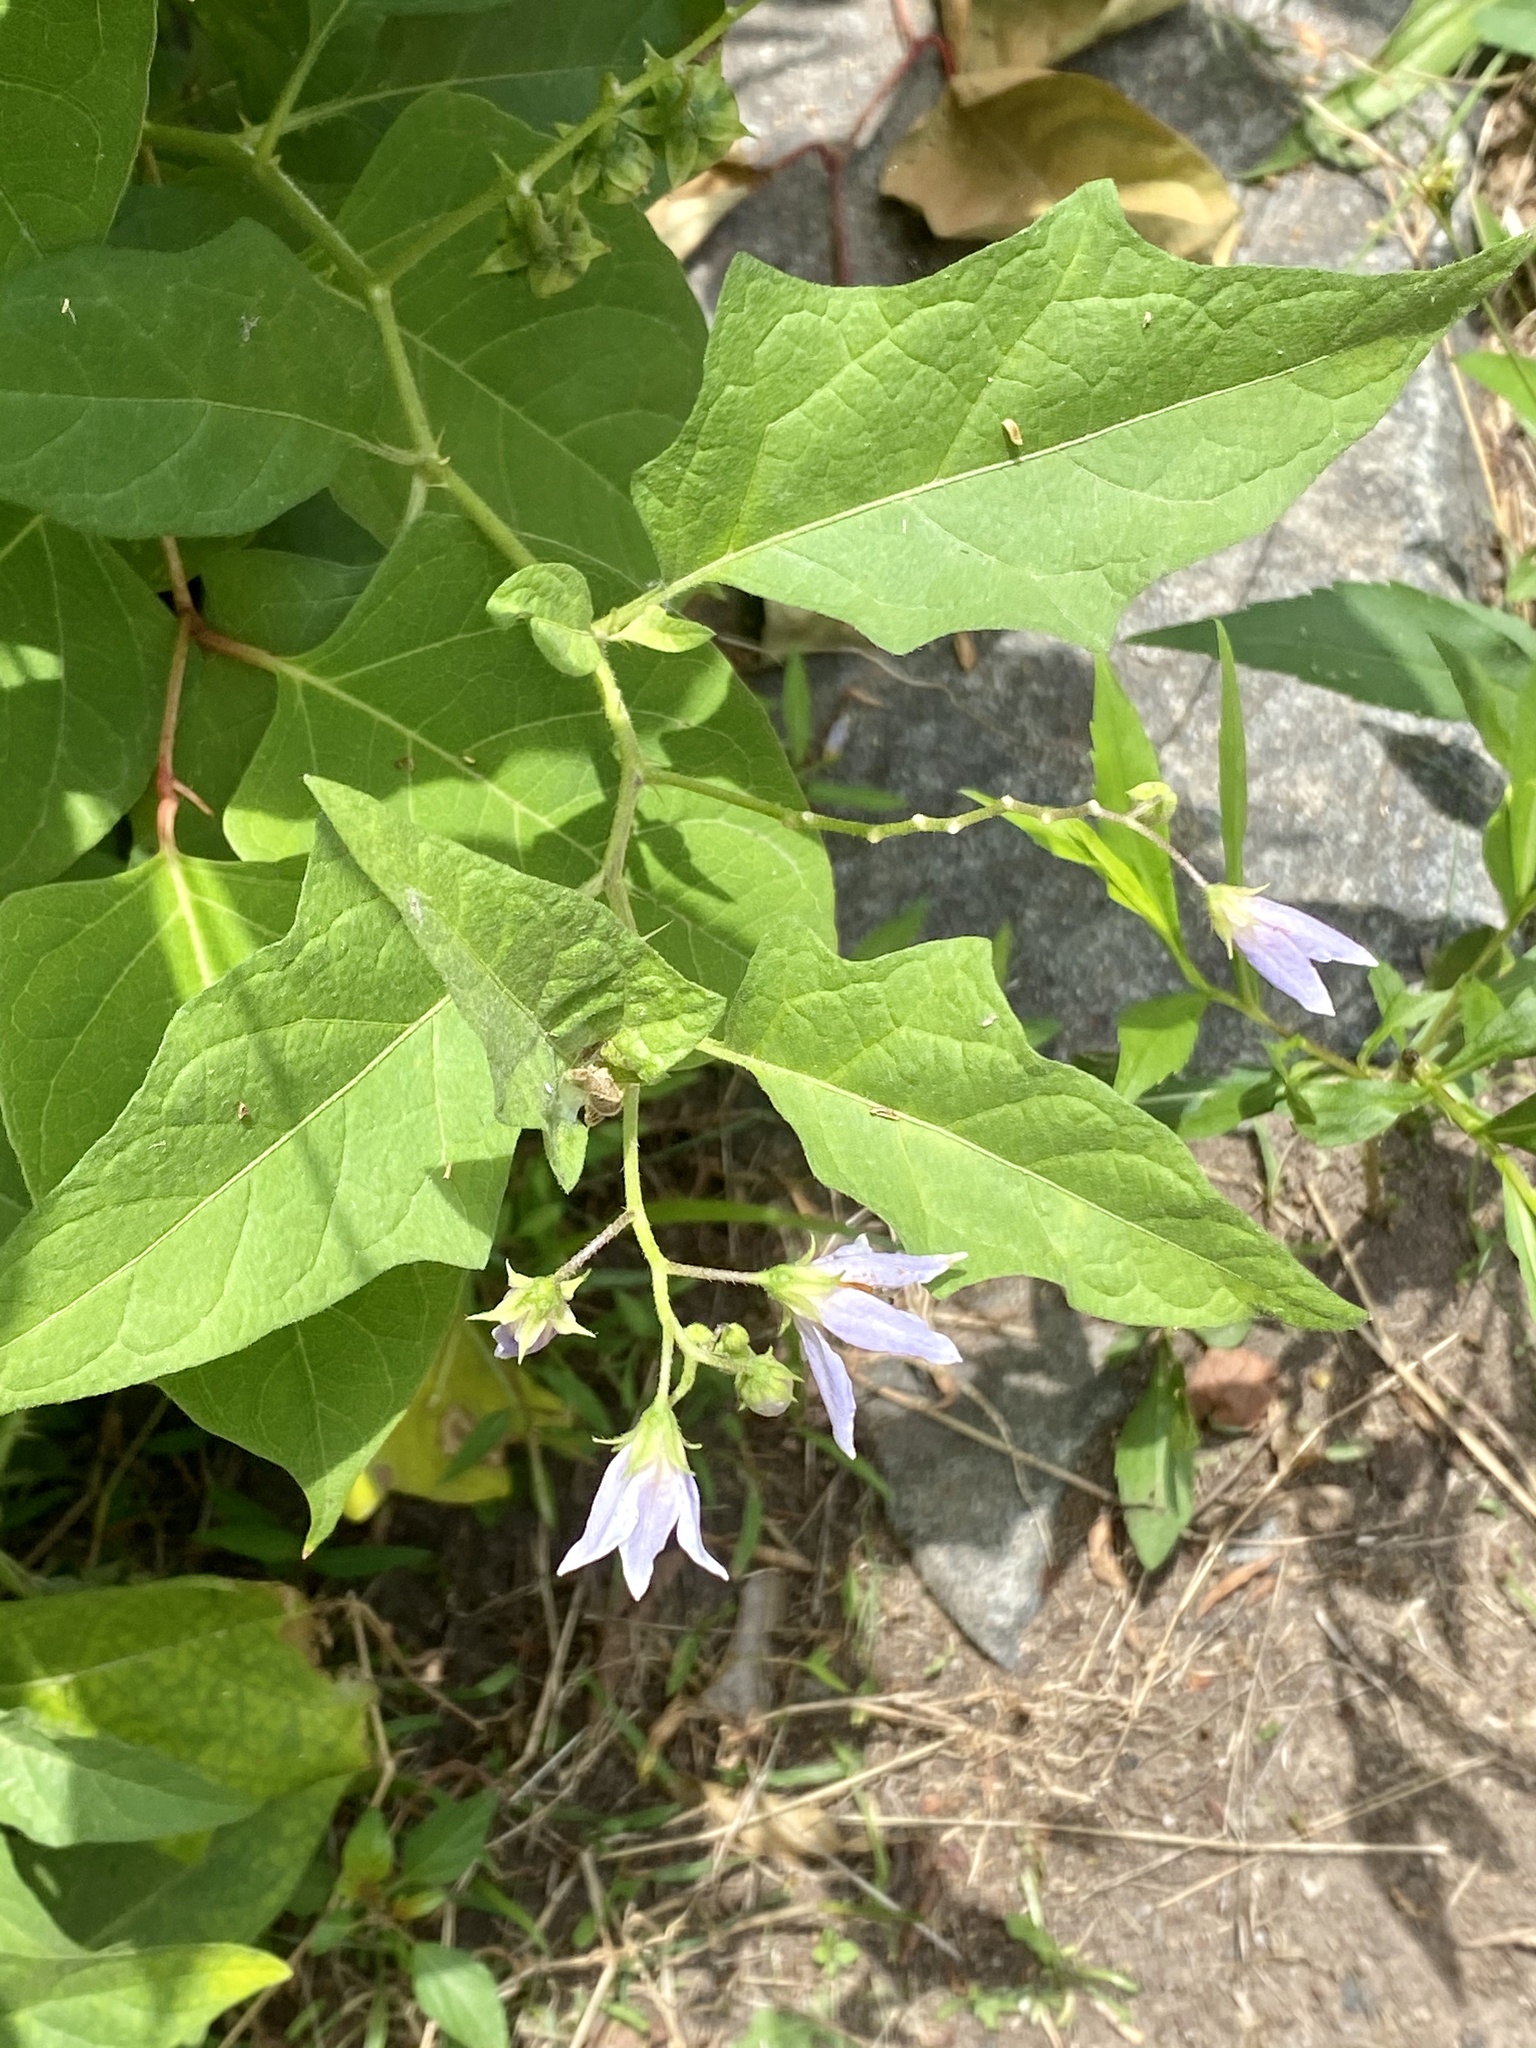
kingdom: Plantae
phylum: Tracheophyta
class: Magnoliopsida
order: Solanales
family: Solanaceae
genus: Solanum
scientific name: Solanum carolinense
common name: Horse-nettle
